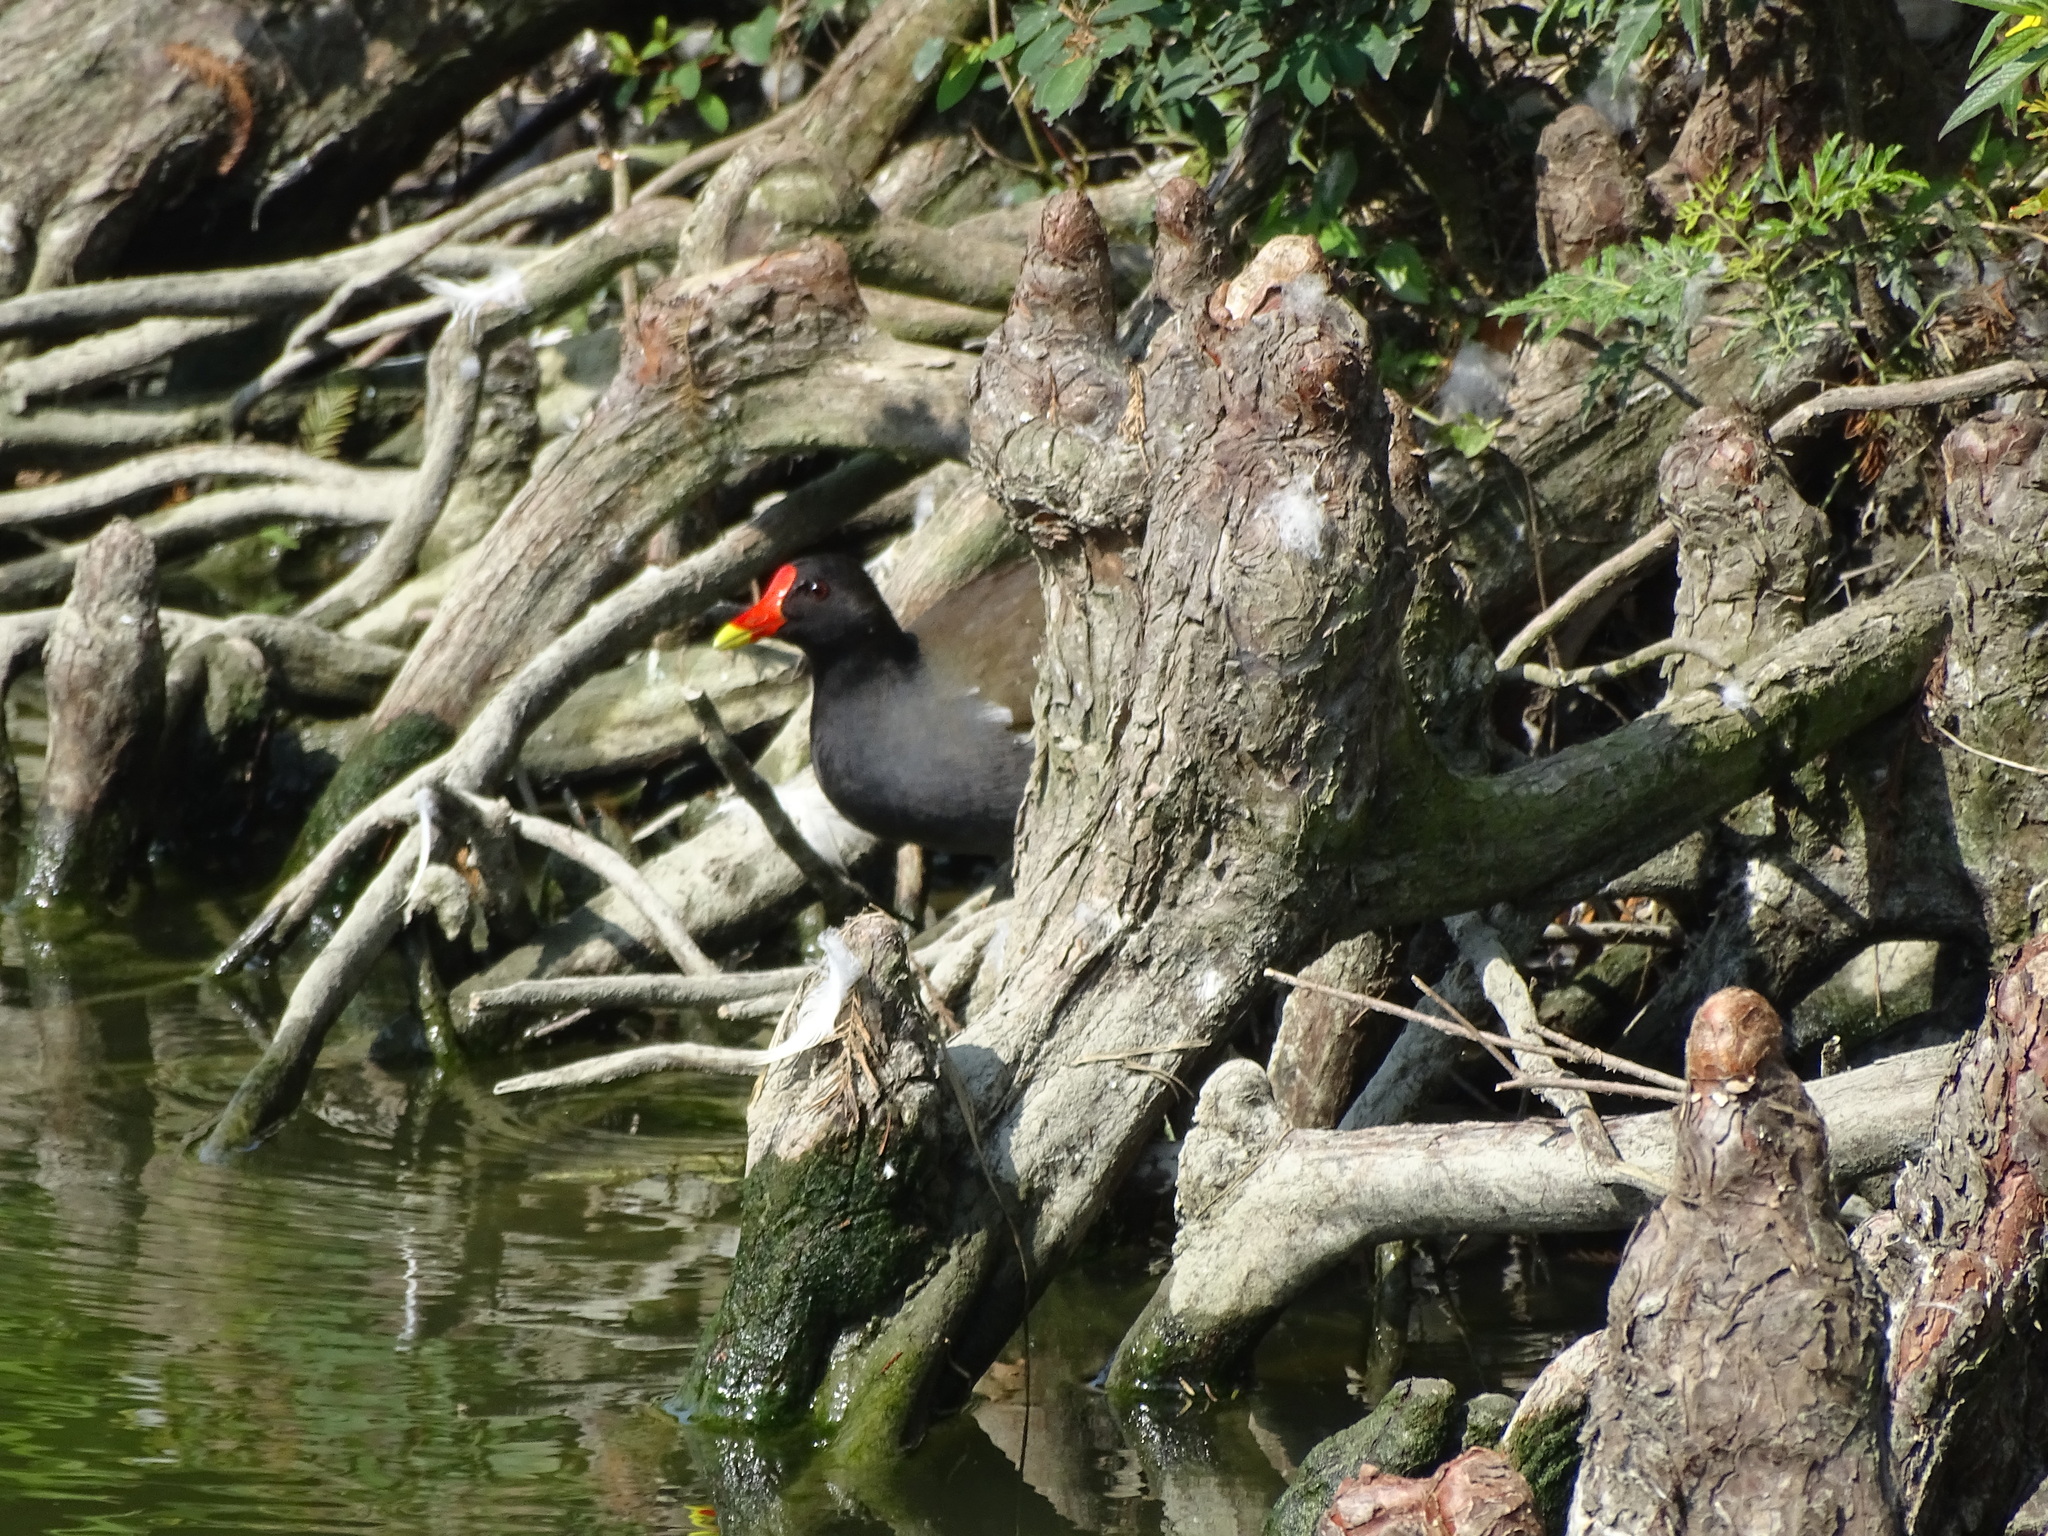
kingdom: Animalia
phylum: Chordata
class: Aves
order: Gruiformes
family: Rallidae
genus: Gallinula
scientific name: Gallinula chloropus
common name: Common moorhen
